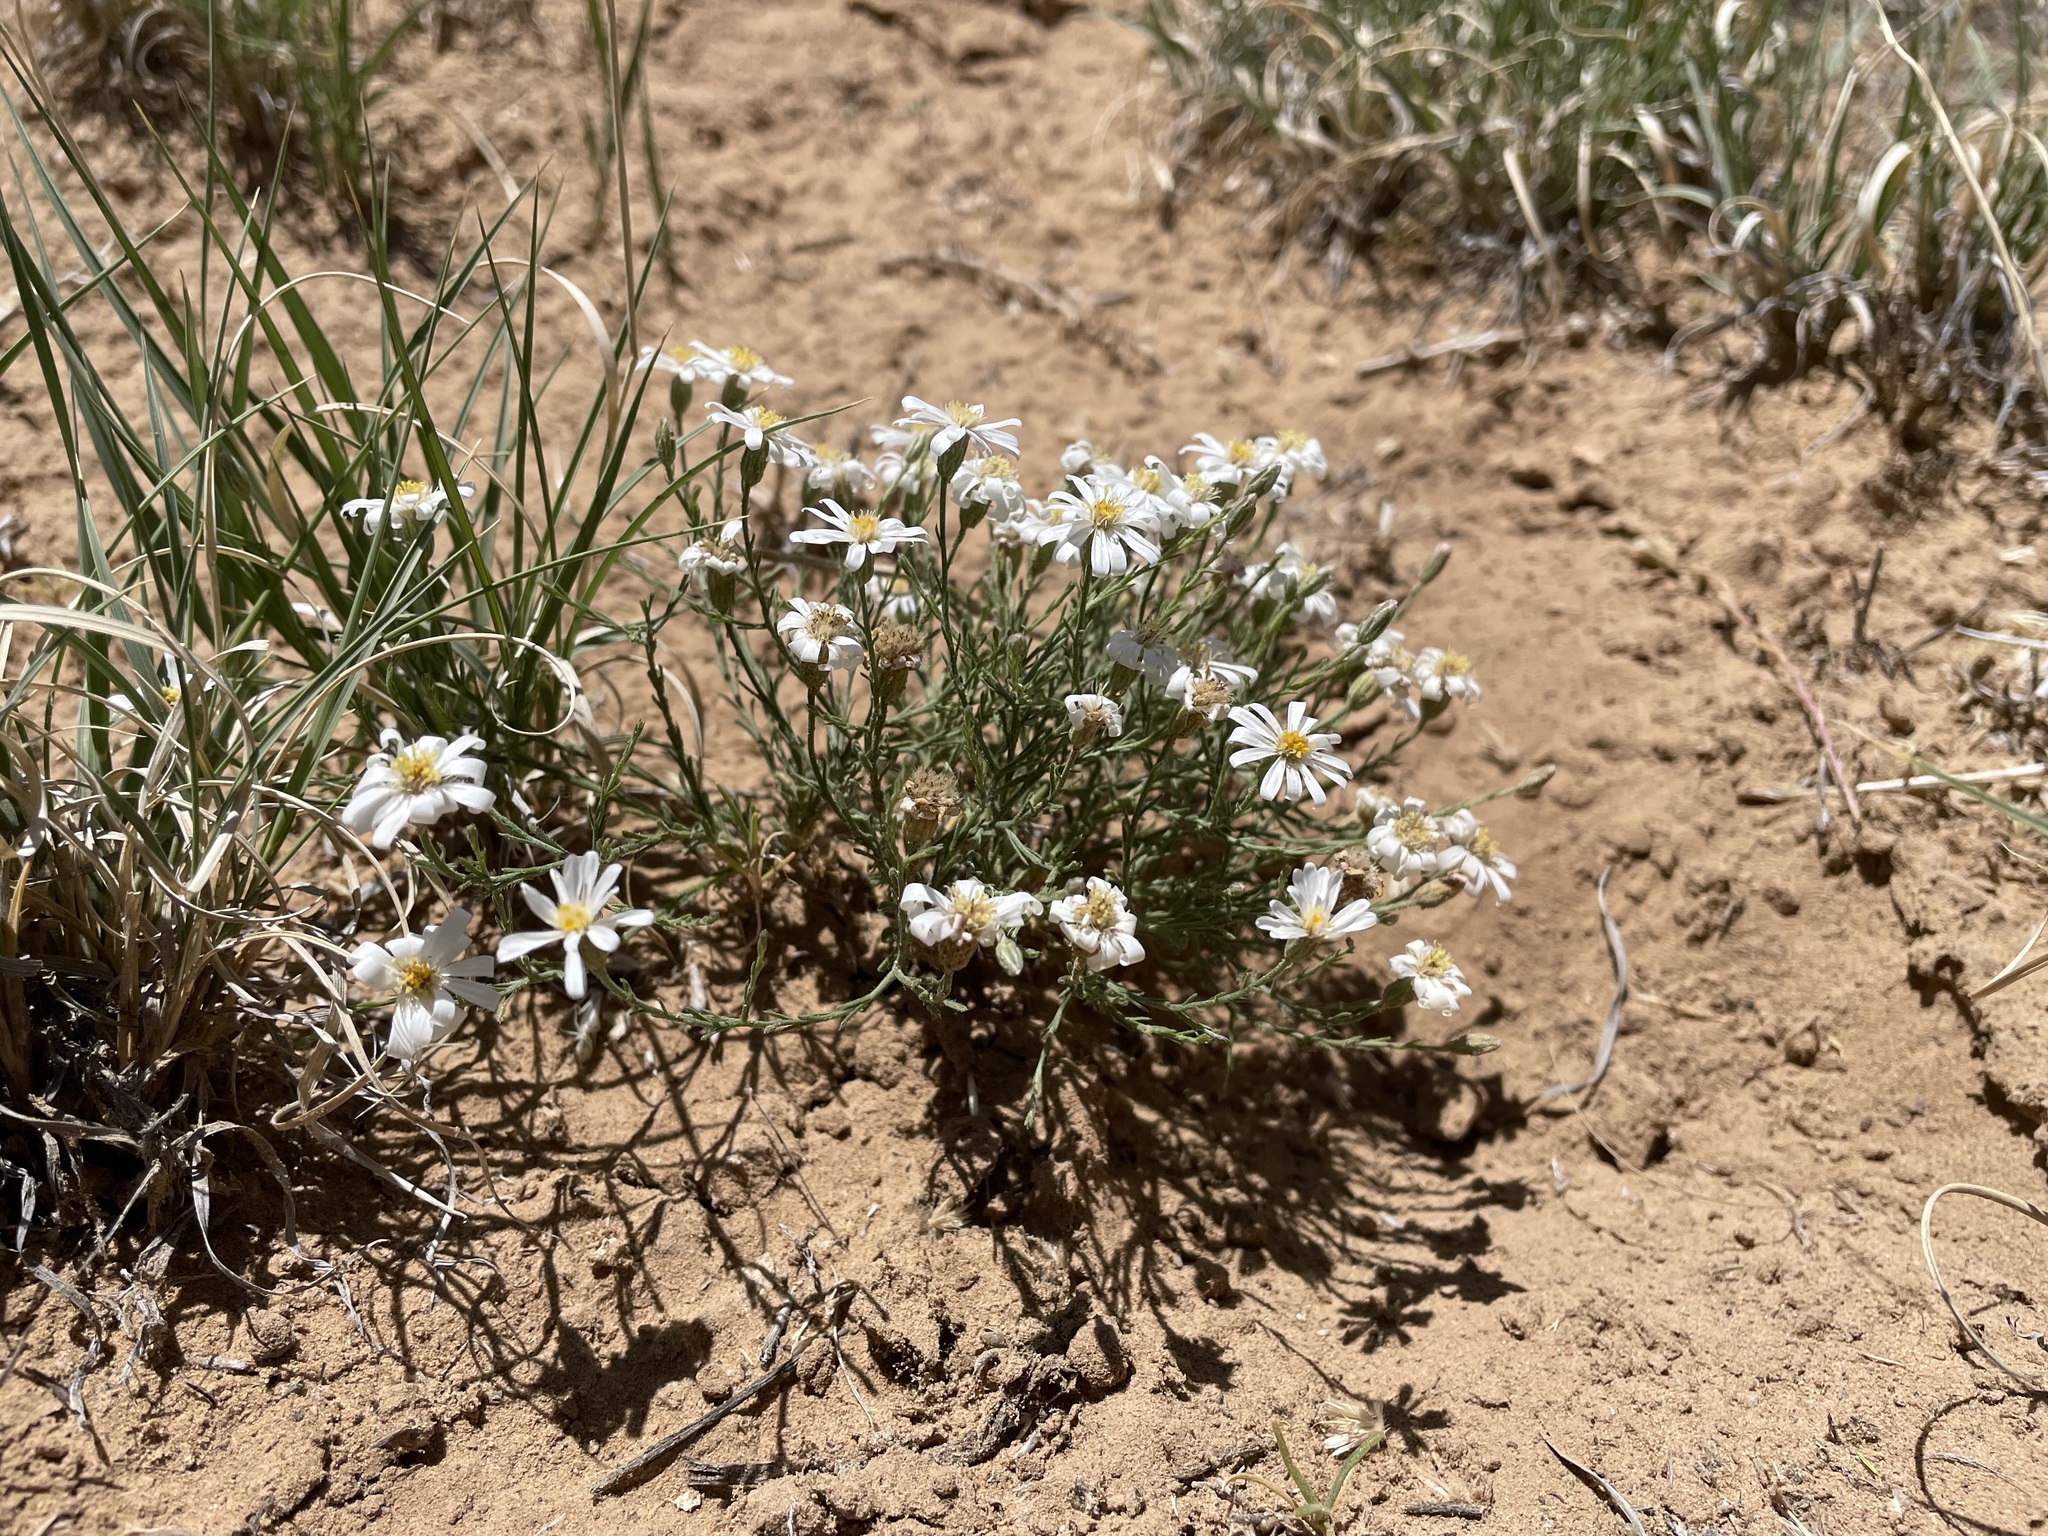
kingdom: Plantae
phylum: Tracheophyta
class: Magnoliopsida
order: Asterales
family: Asteraceae
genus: Chaetopappa
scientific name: Chaetopappa ericoides
